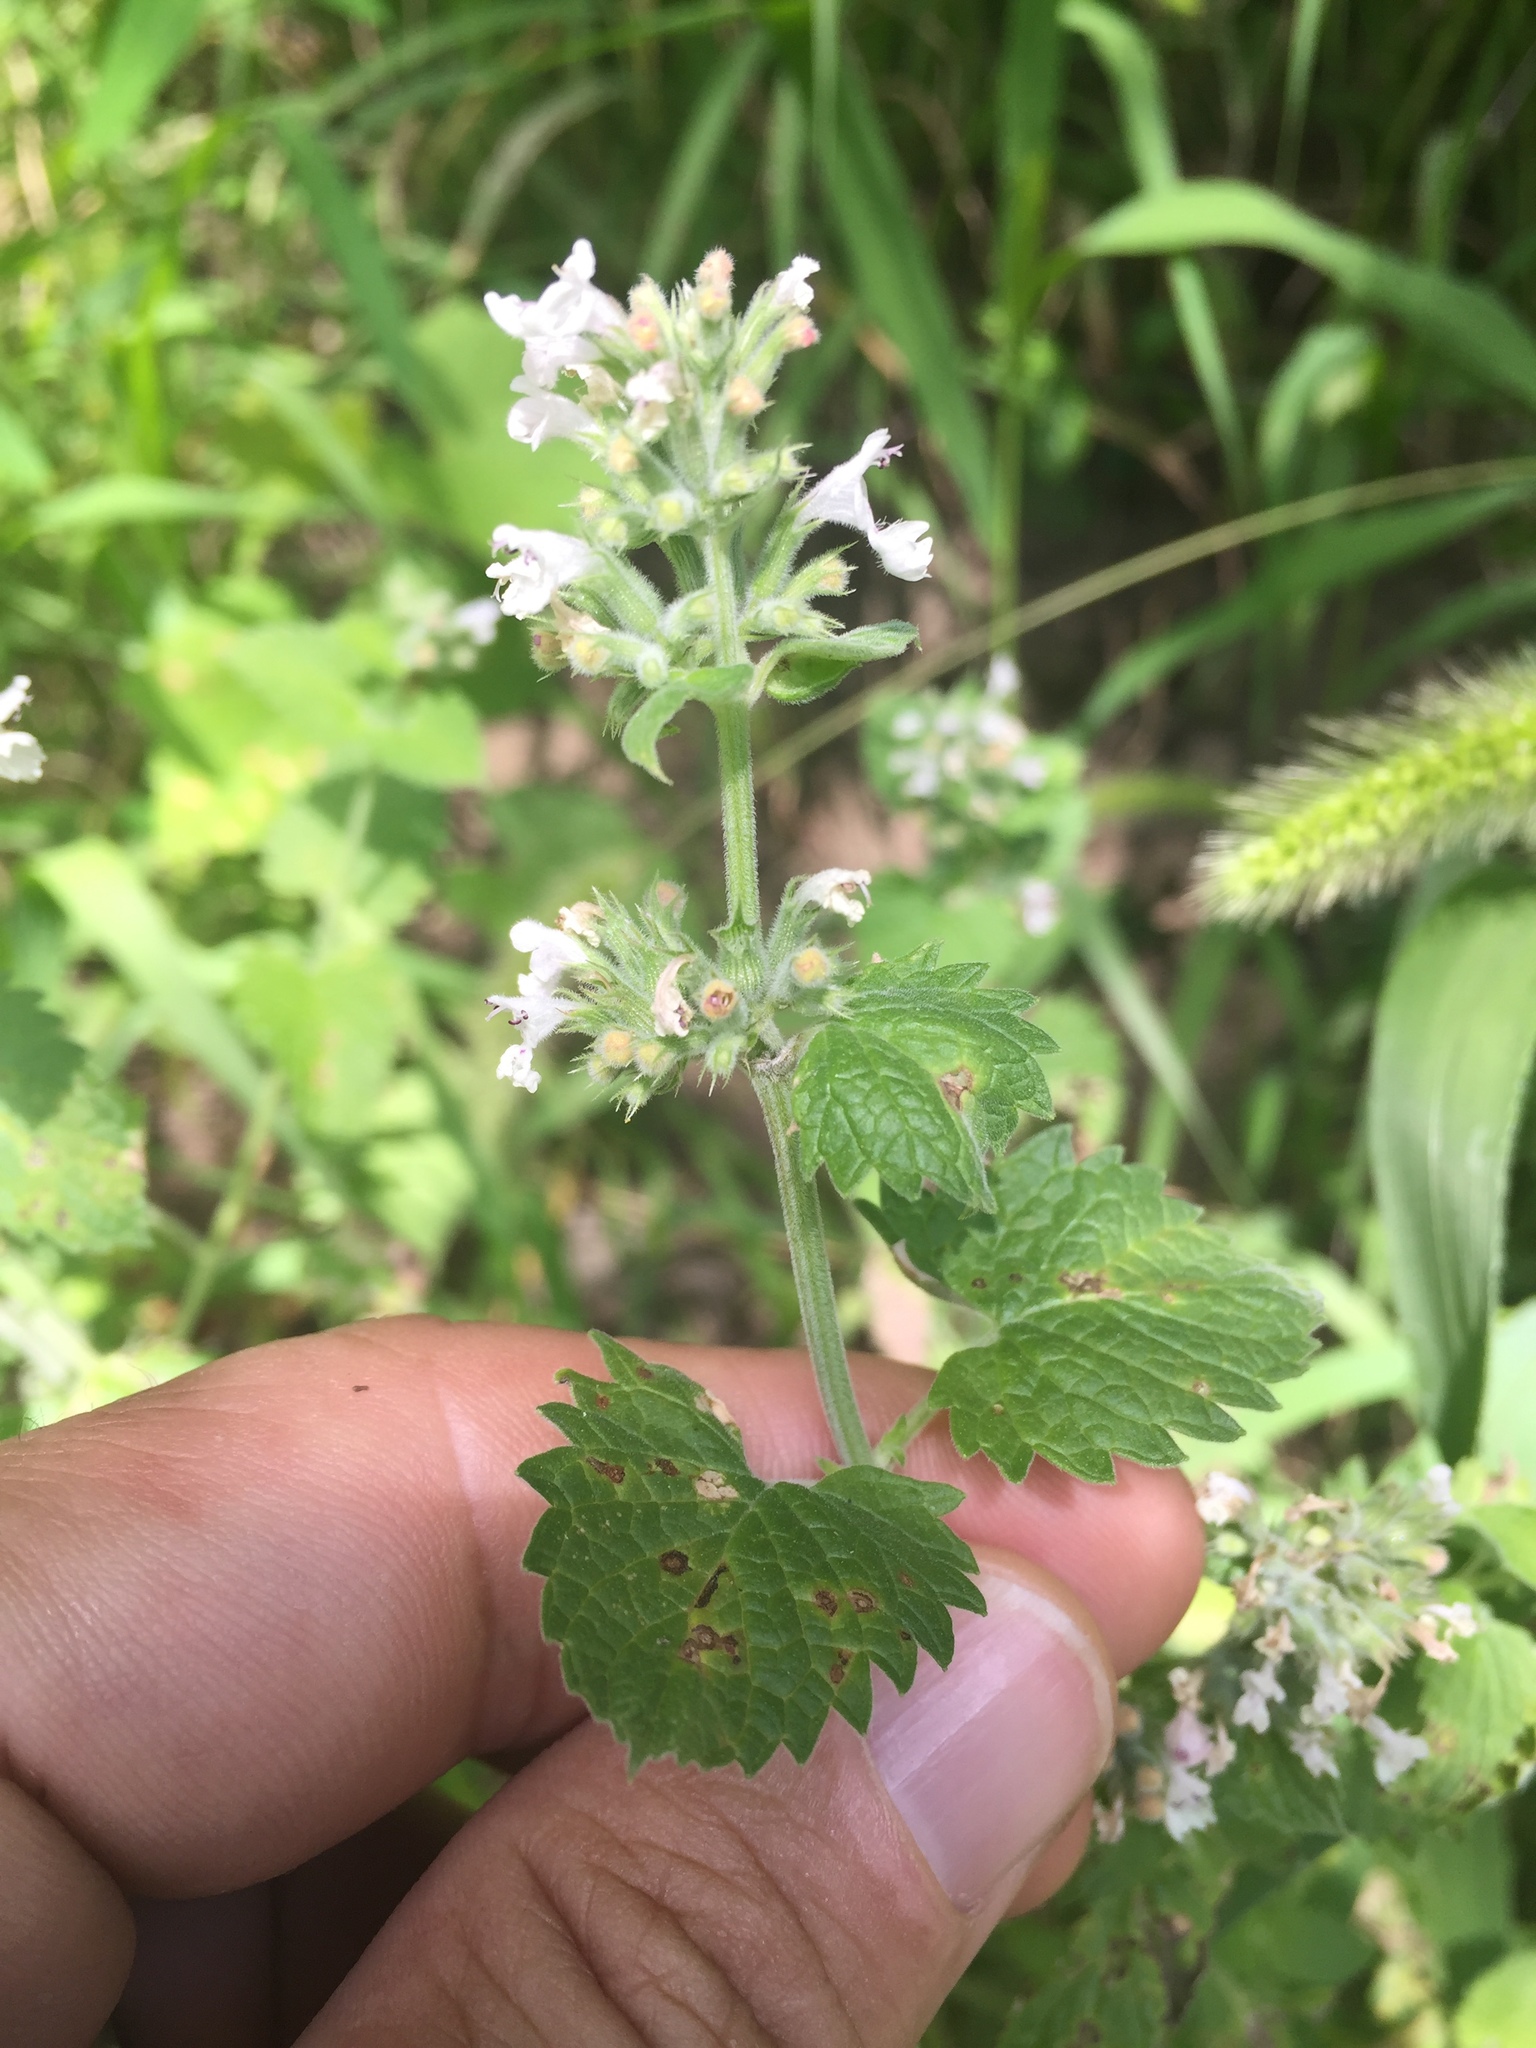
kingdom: Plantae
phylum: Tracheophyta
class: Magnoliopsida
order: Lamiales
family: Lamiaceae
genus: Nepeta
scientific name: Nepeta cataria
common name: Catnip
